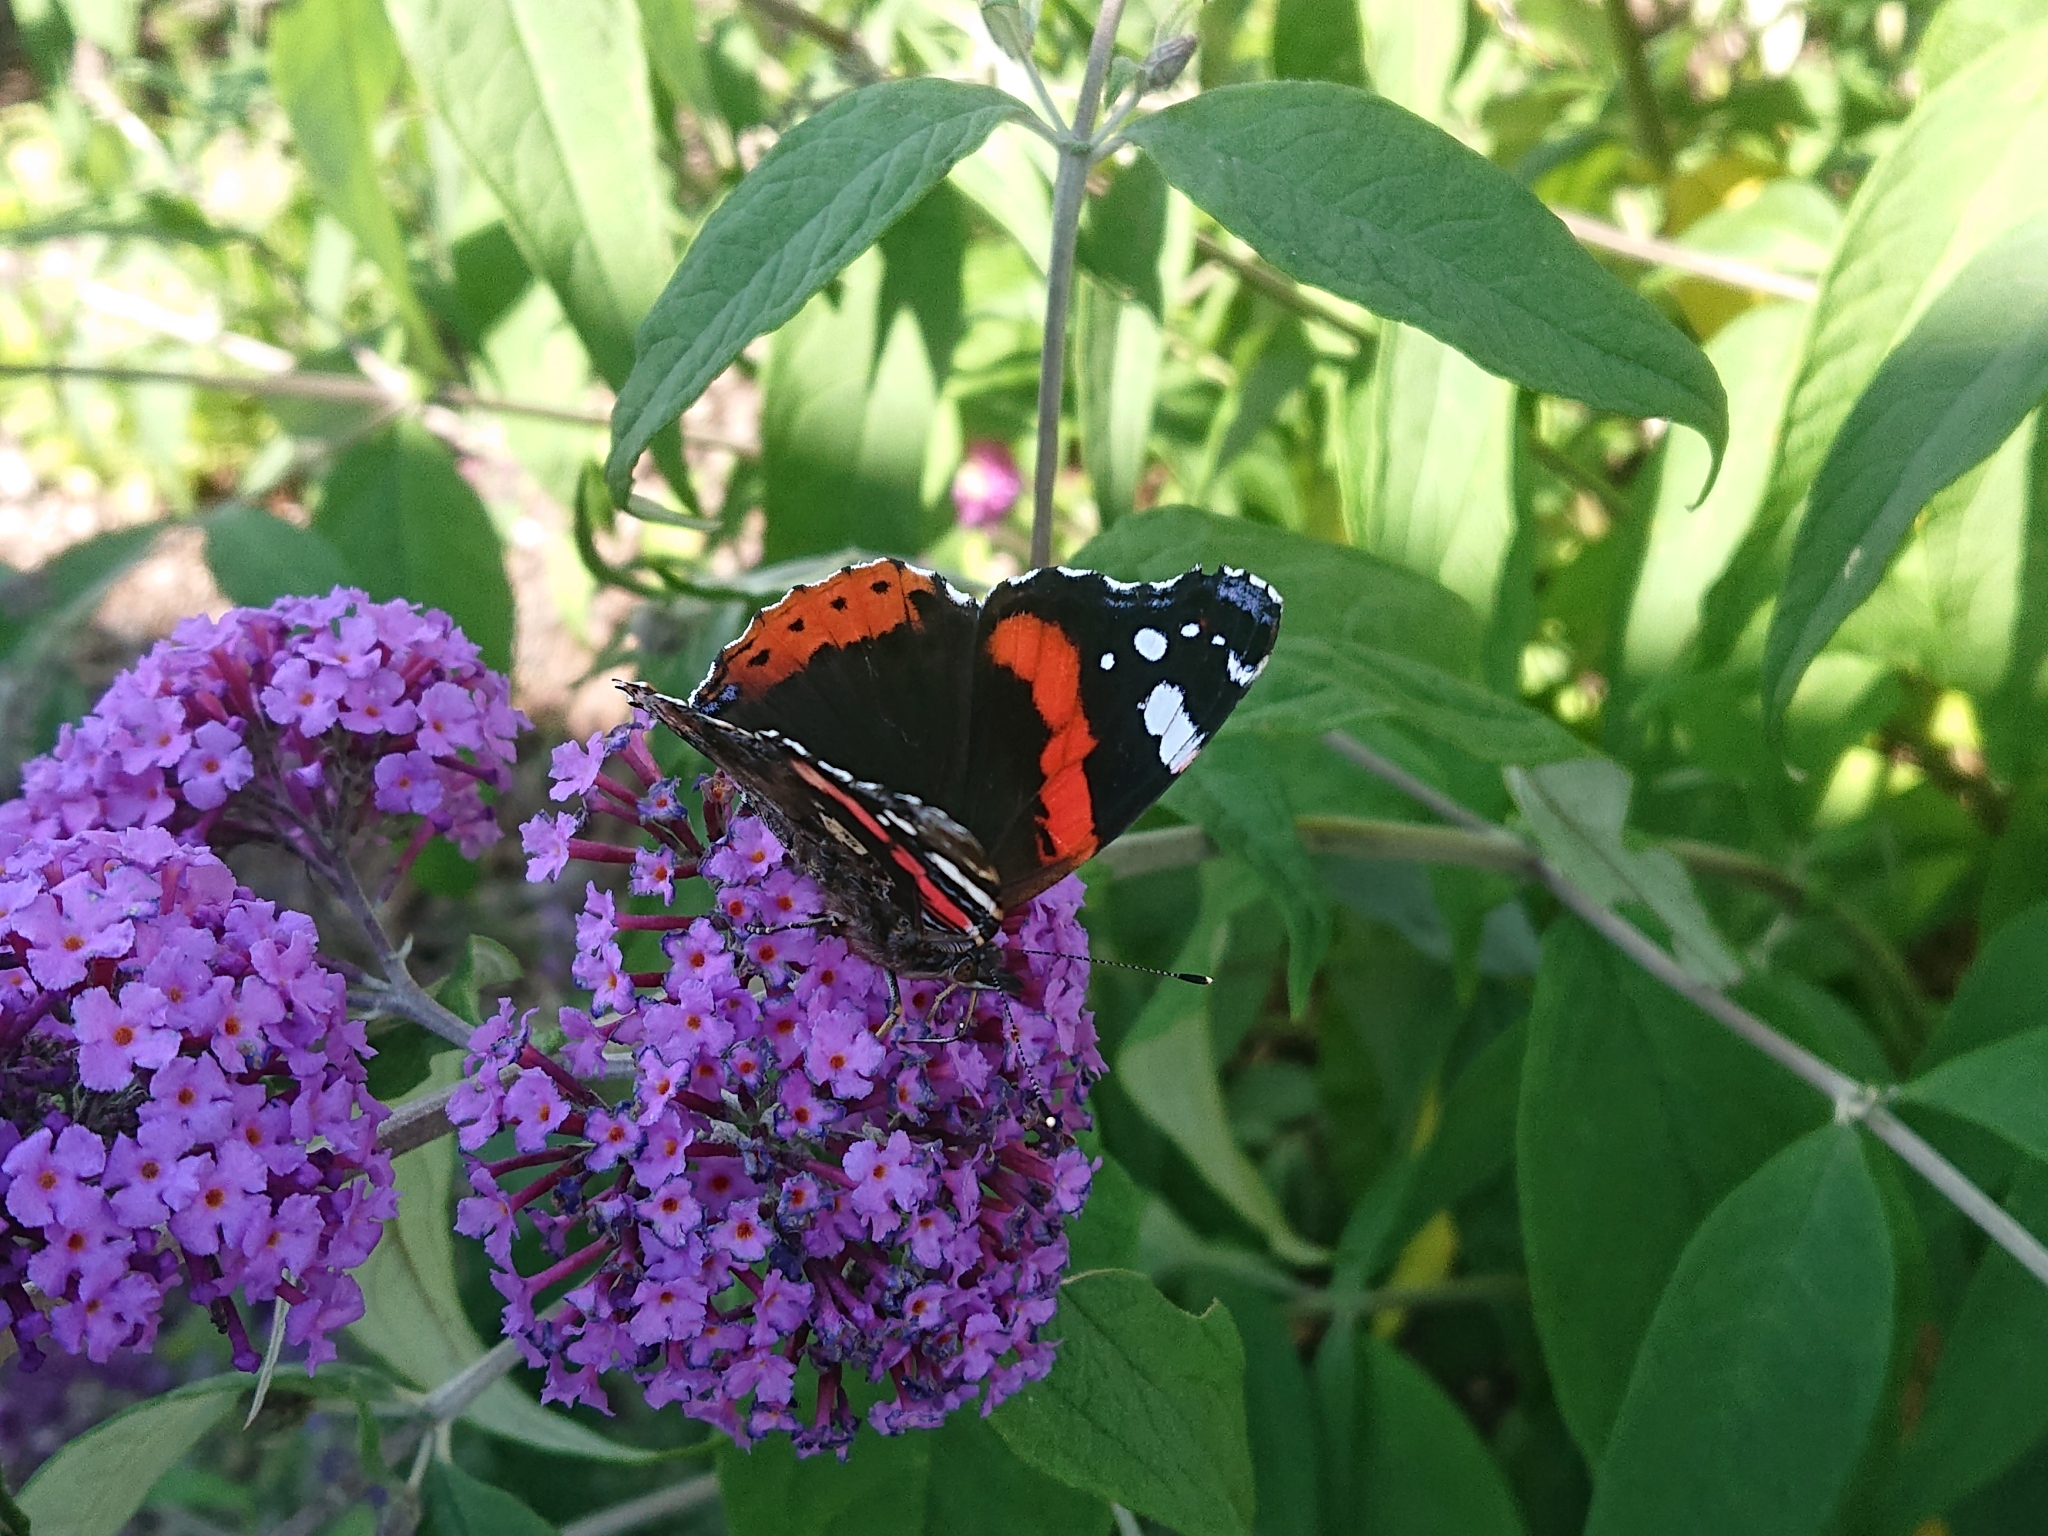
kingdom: Animalia
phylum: Arthropoda
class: Insecta
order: Lepidoptera
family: Nymphalidae
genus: Vanessa
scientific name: Vanessa atalanta
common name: Red admiral
